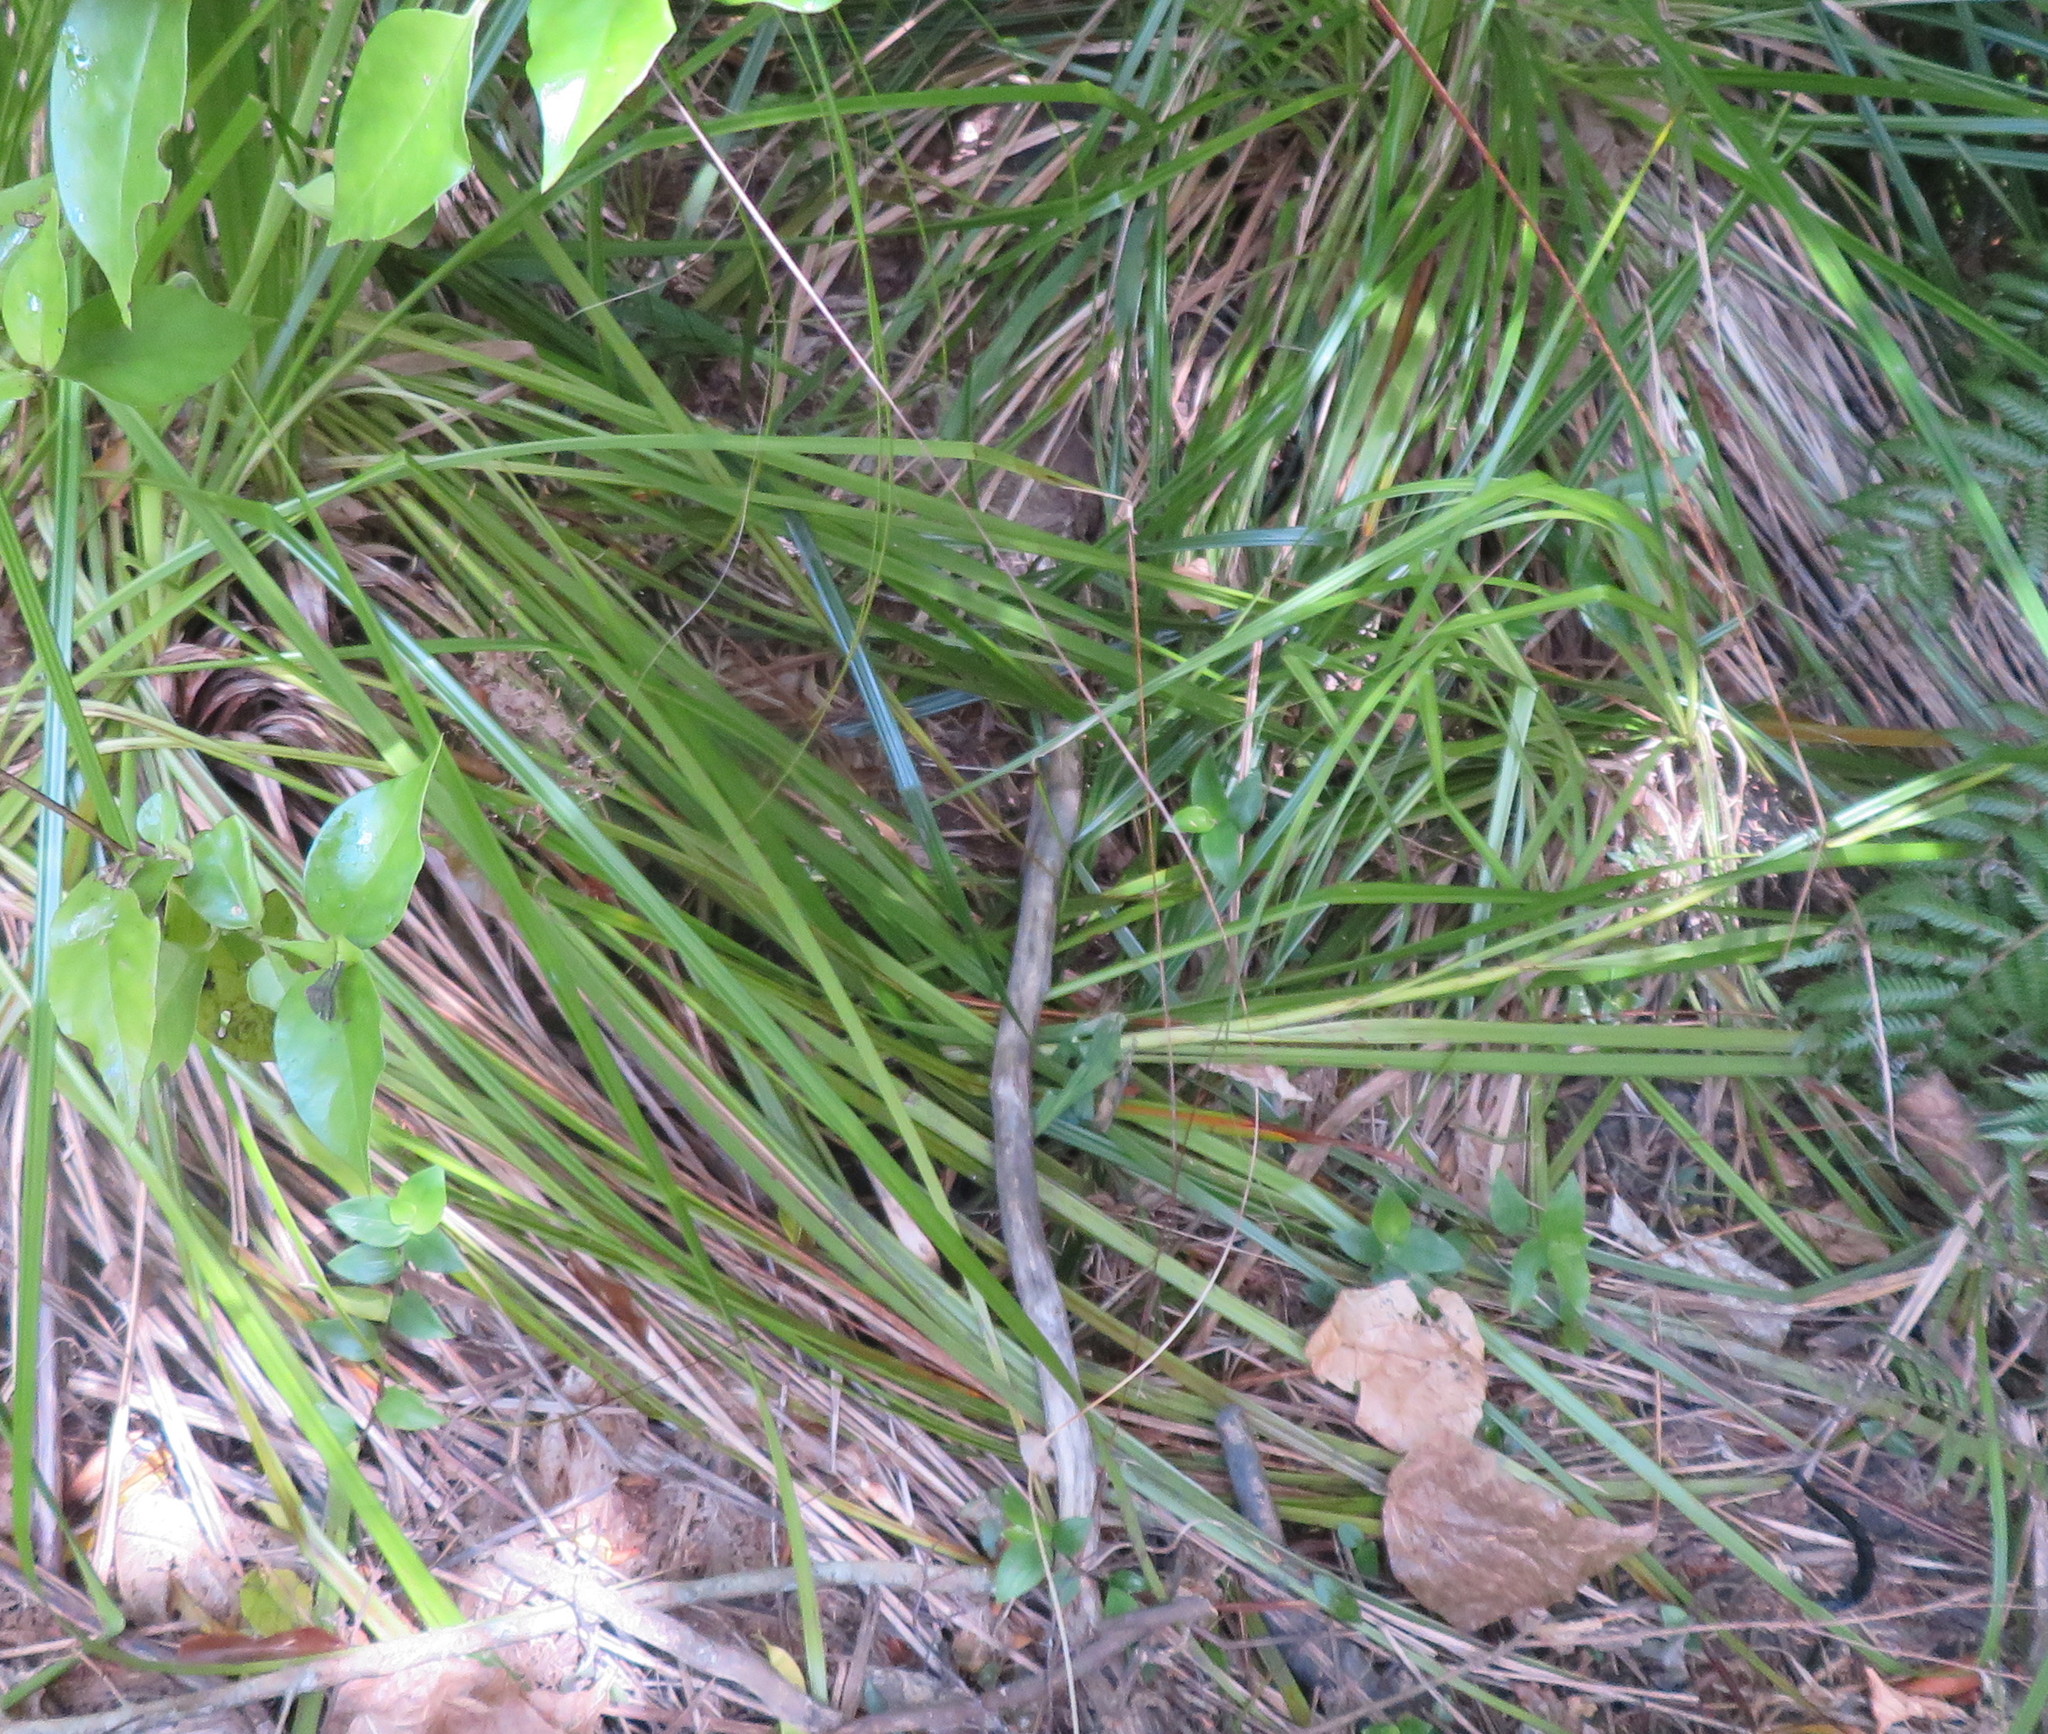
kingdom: Plantae
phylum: Tracheophyta
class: Liliopsida
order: Commelinales
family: Commelinaceae
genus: Tradescantia
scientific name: Tradescantia fluminensis
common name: Wandering-jew
